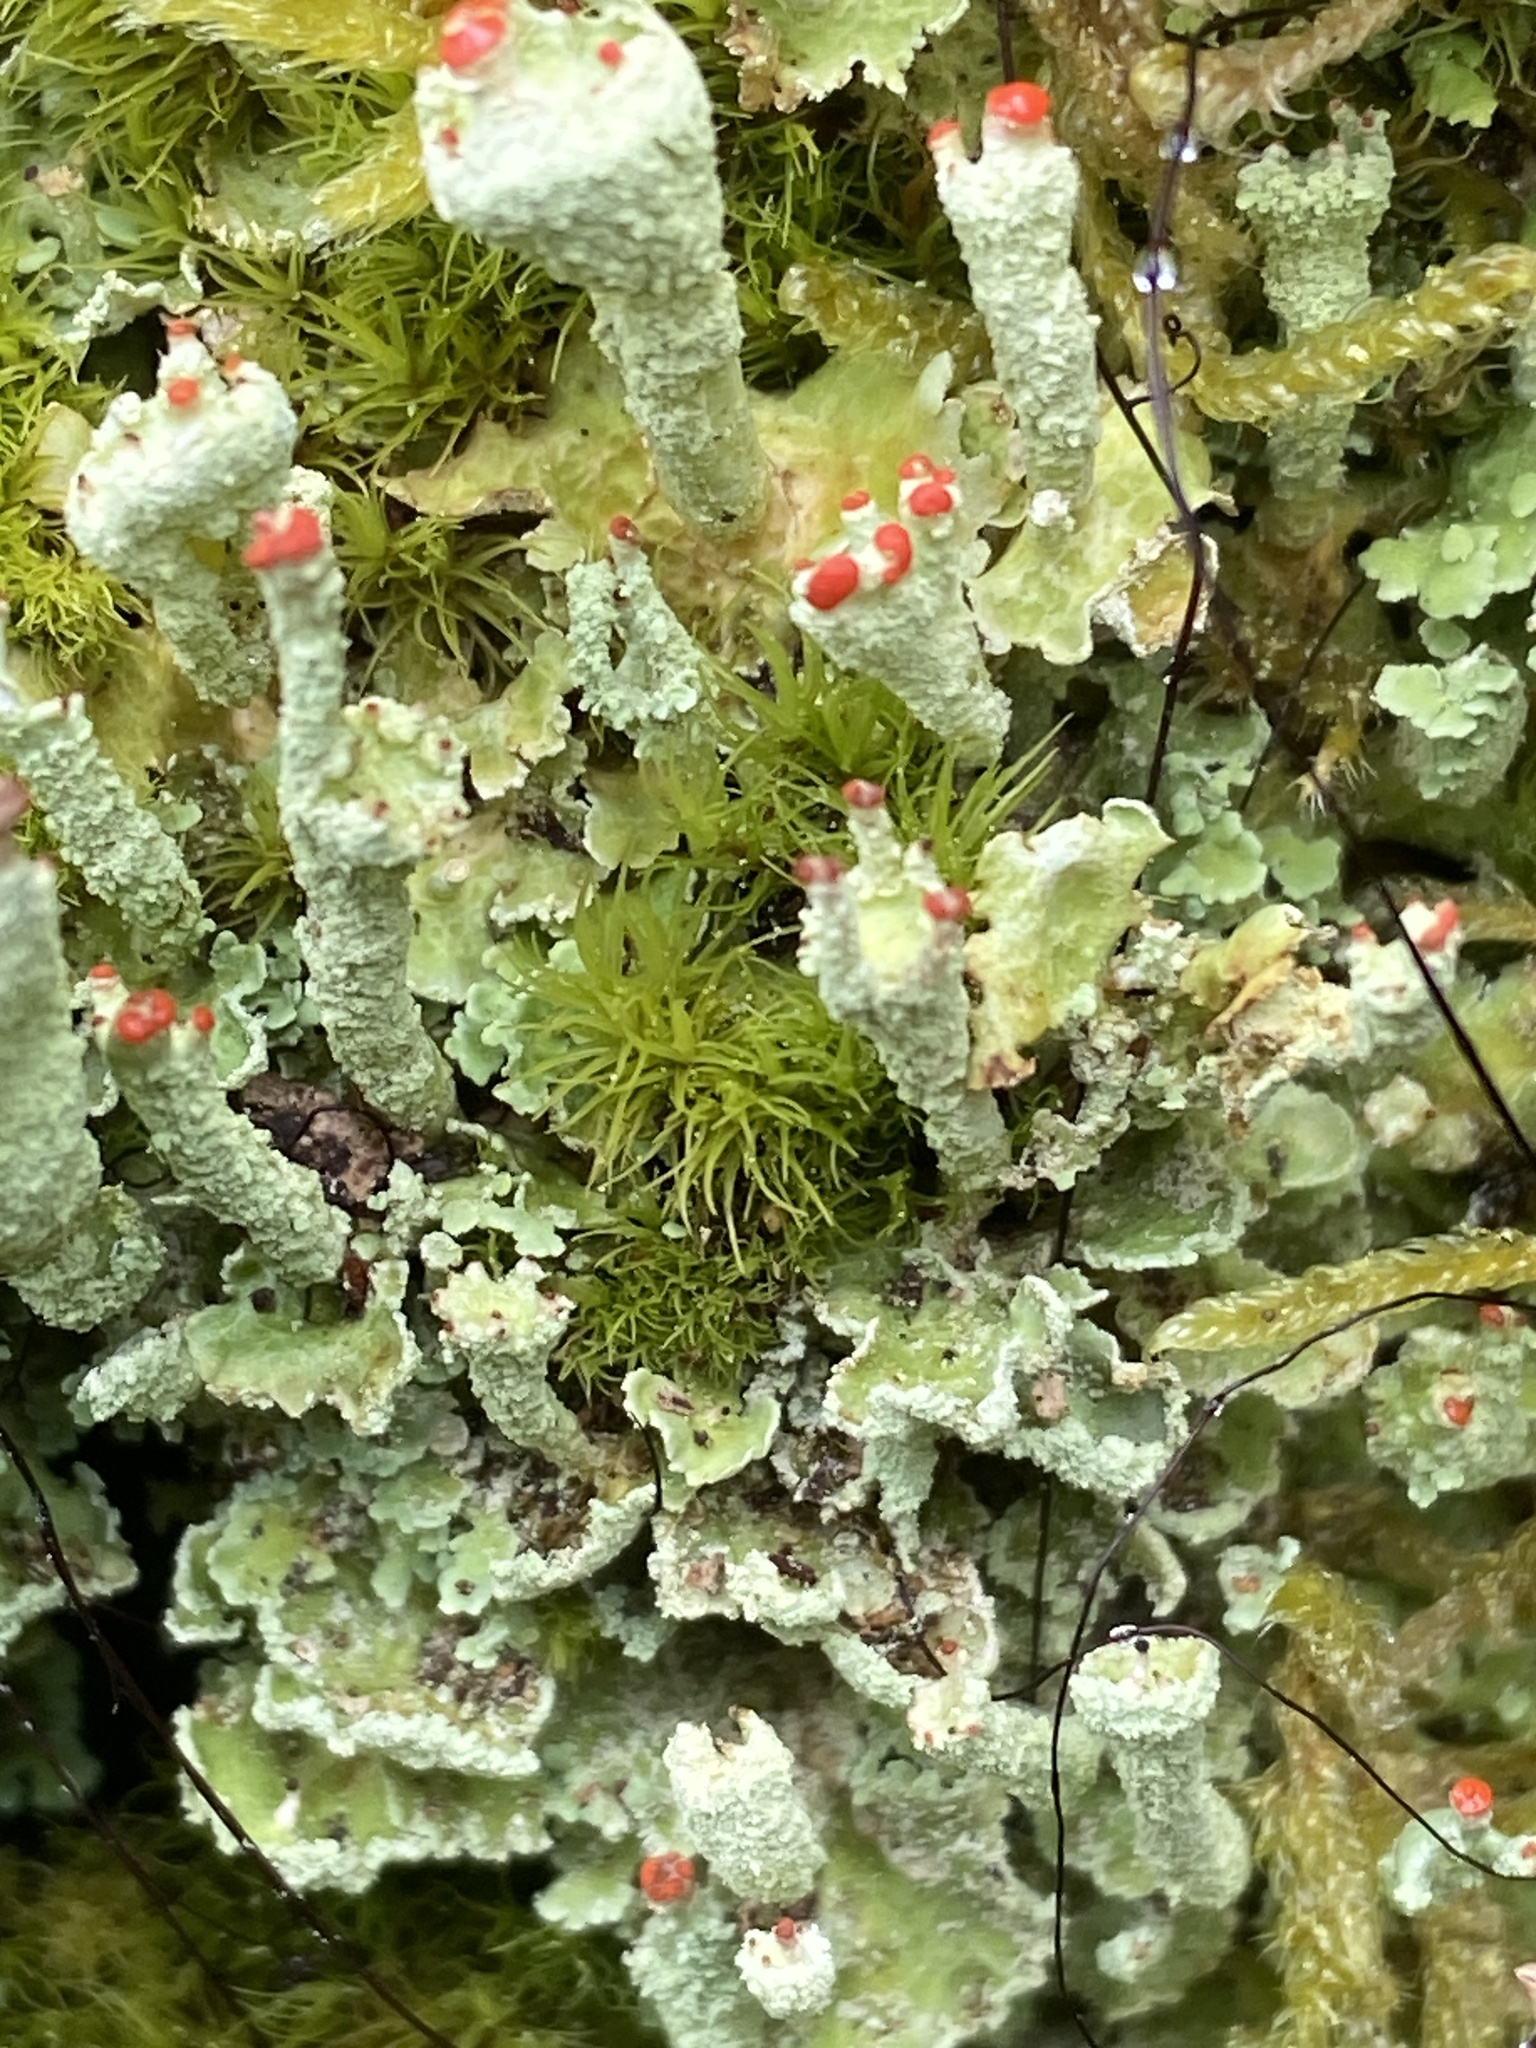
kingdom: Fungi
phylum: Ascomycota
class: Lecanoromycetes
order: Lecanorales
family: Cladoniaceae
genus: Cladonia
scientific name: Cladonia digitata
